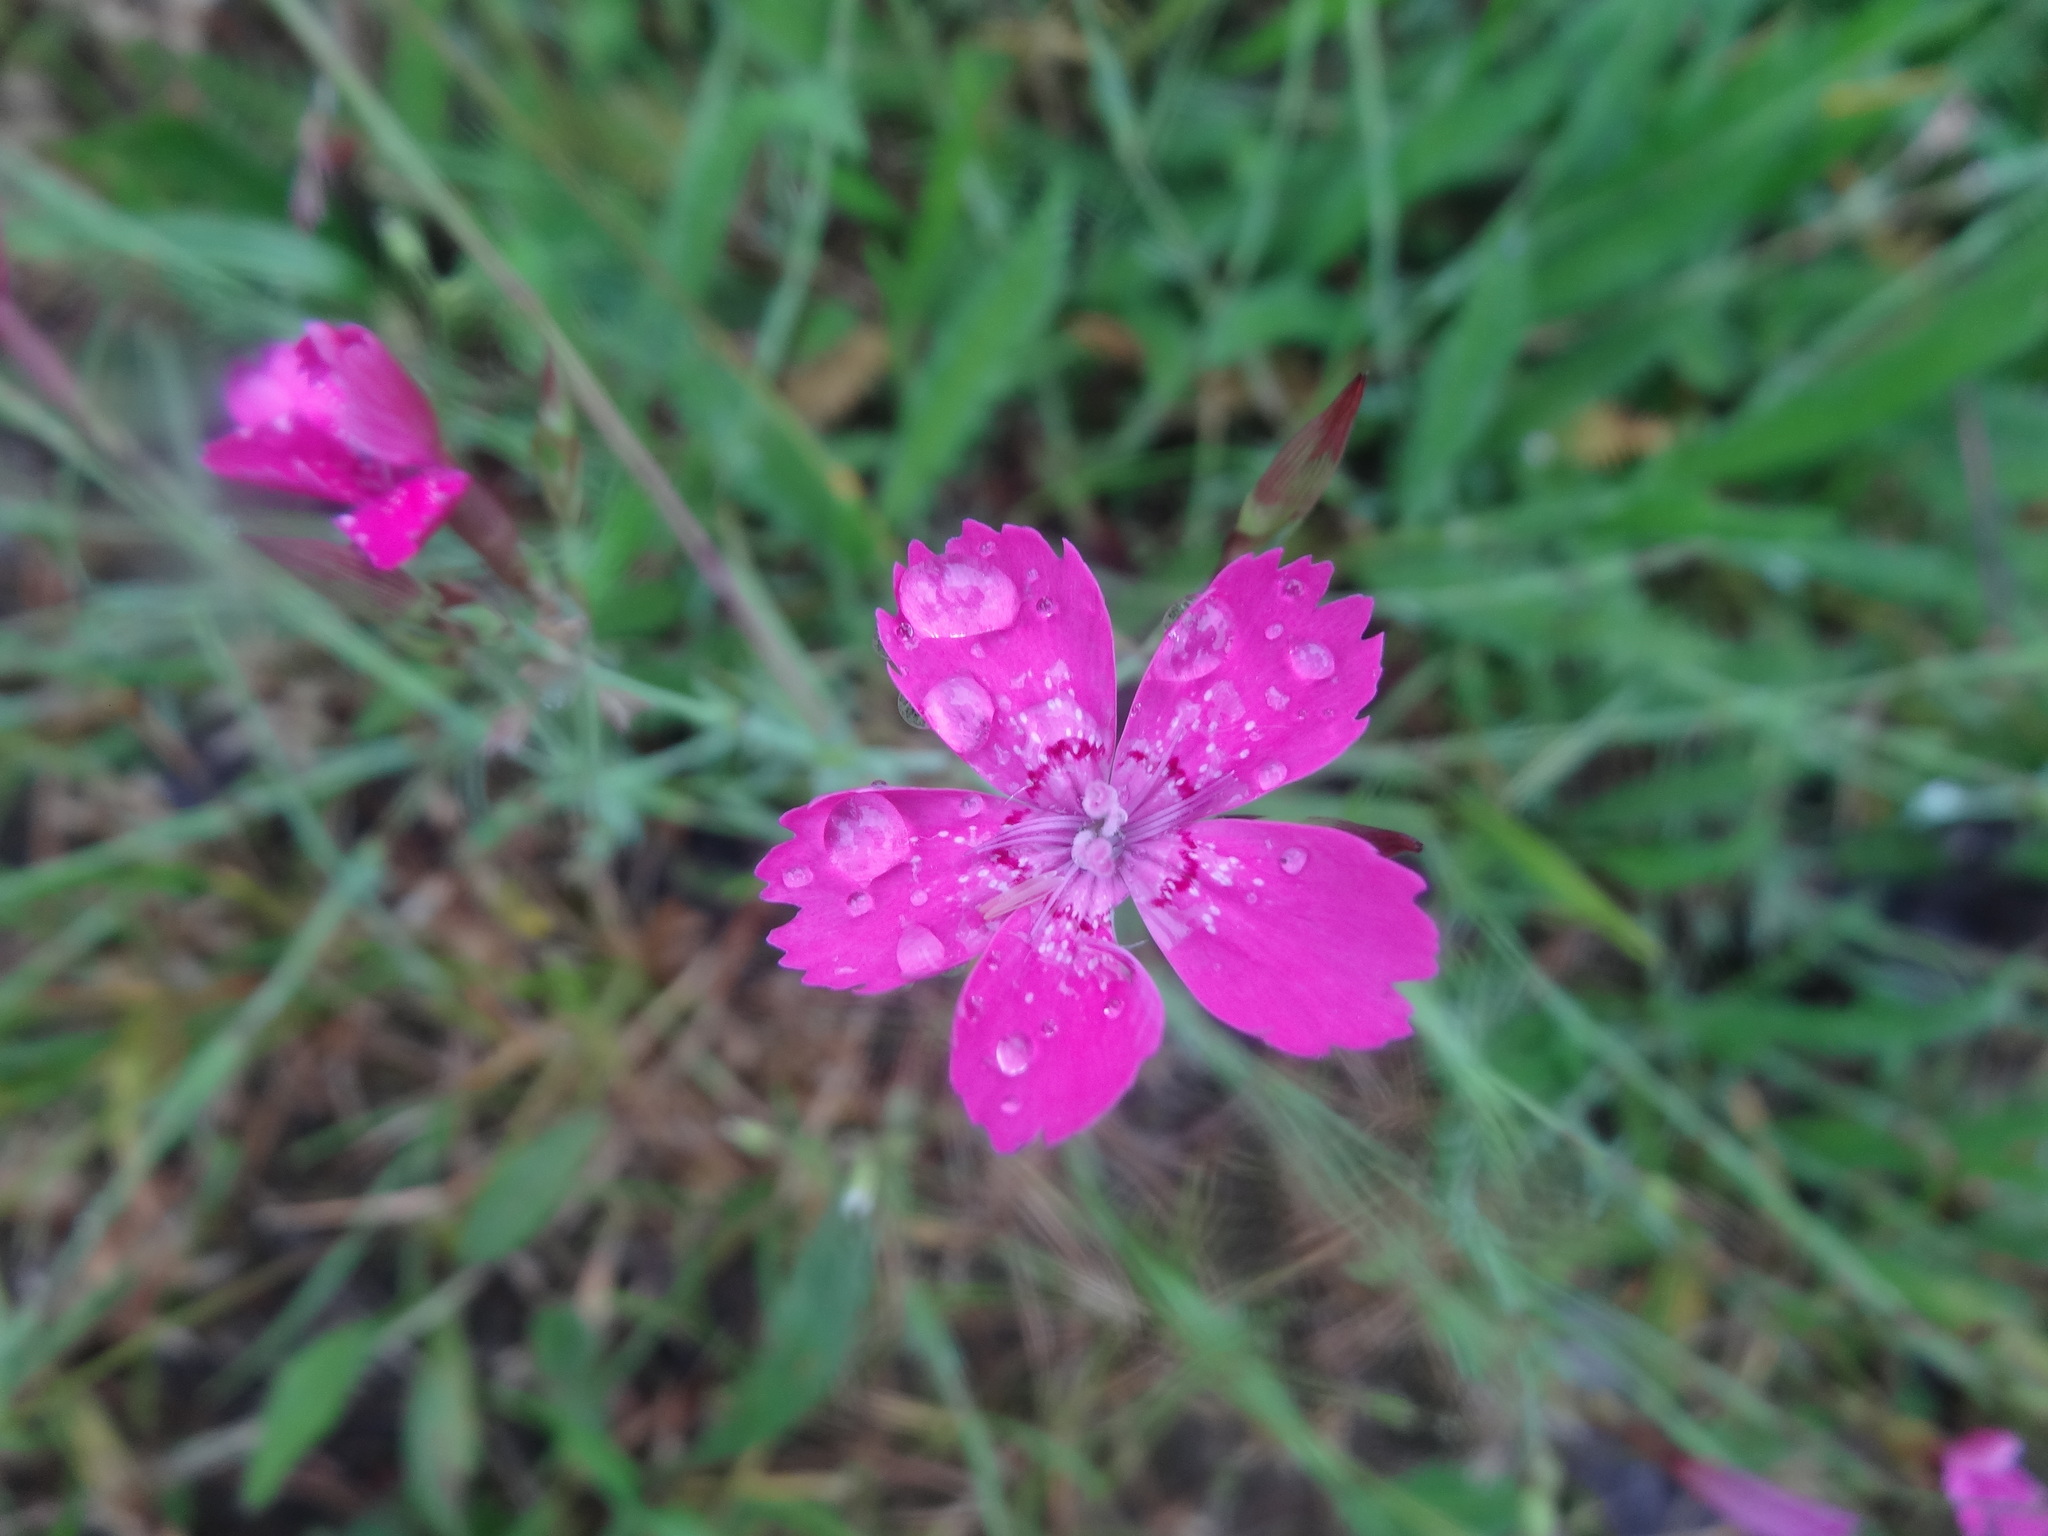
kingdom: Plantae
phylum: Tracheophyta
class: Magnoliopsida
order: Caryophyllales
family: Caryophyllaceae
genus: Dianthus
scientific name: Dianthus deltoides
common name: Maiden pink
